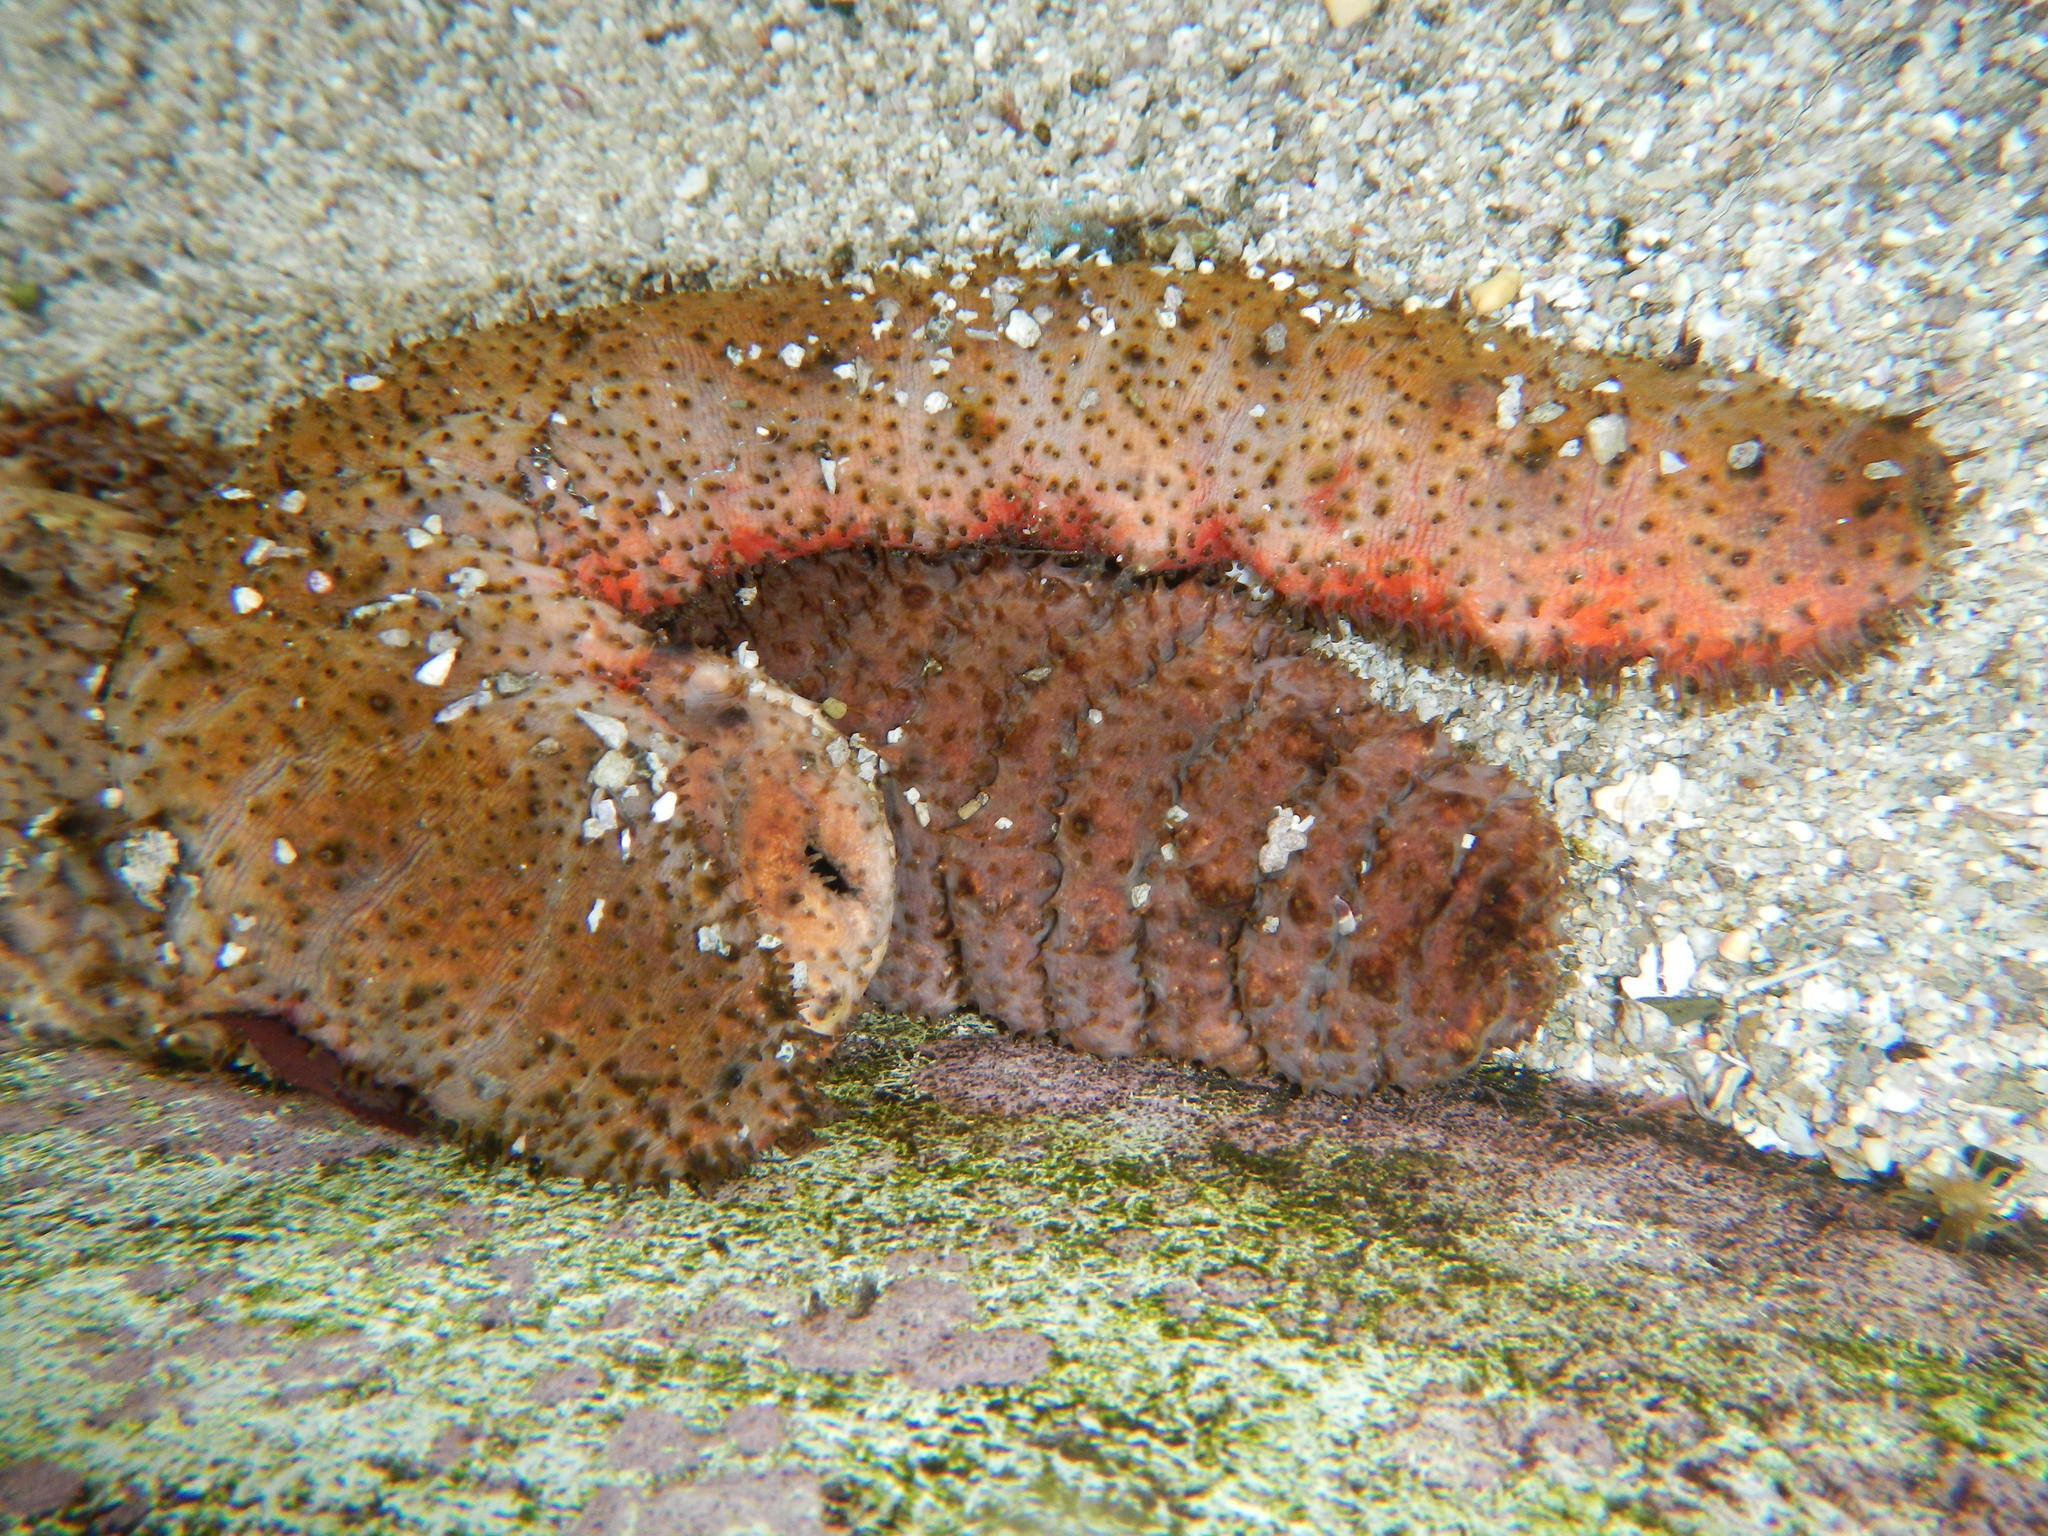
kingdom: Animalia
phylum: Echinodermata
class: Holothuroidea
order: Holothuriida
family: Holothuriidae
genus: Holothuria
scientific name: Holothuria mexicana
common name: Donkey dung sea cucumber
